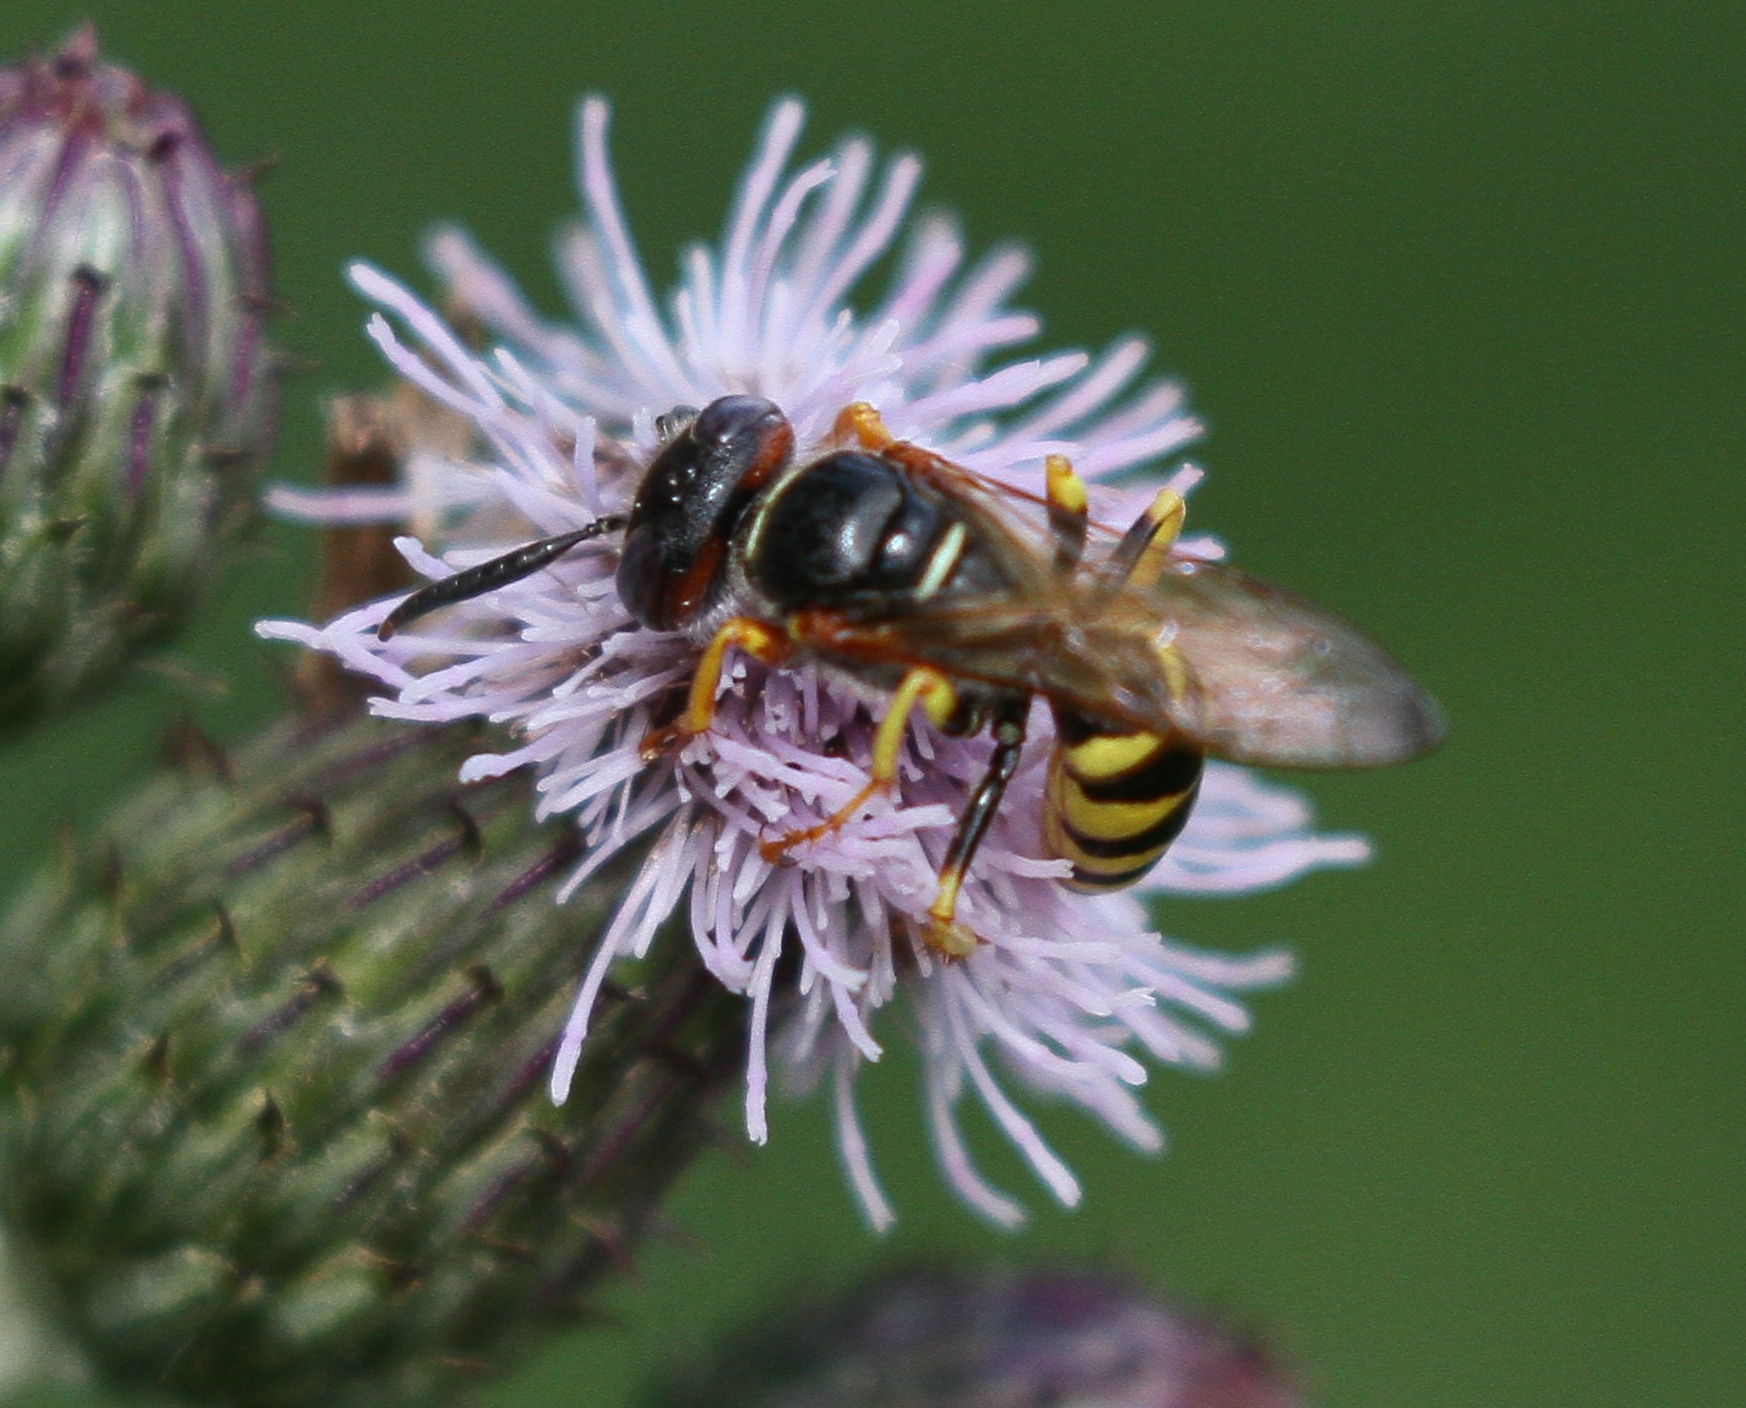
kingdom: Animalia
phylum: Arthropoda
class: Insecta
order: Hymenoptera
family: Crabronidae
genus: Philanthus
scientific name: Philanthus triangulum
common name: Bee wolf
